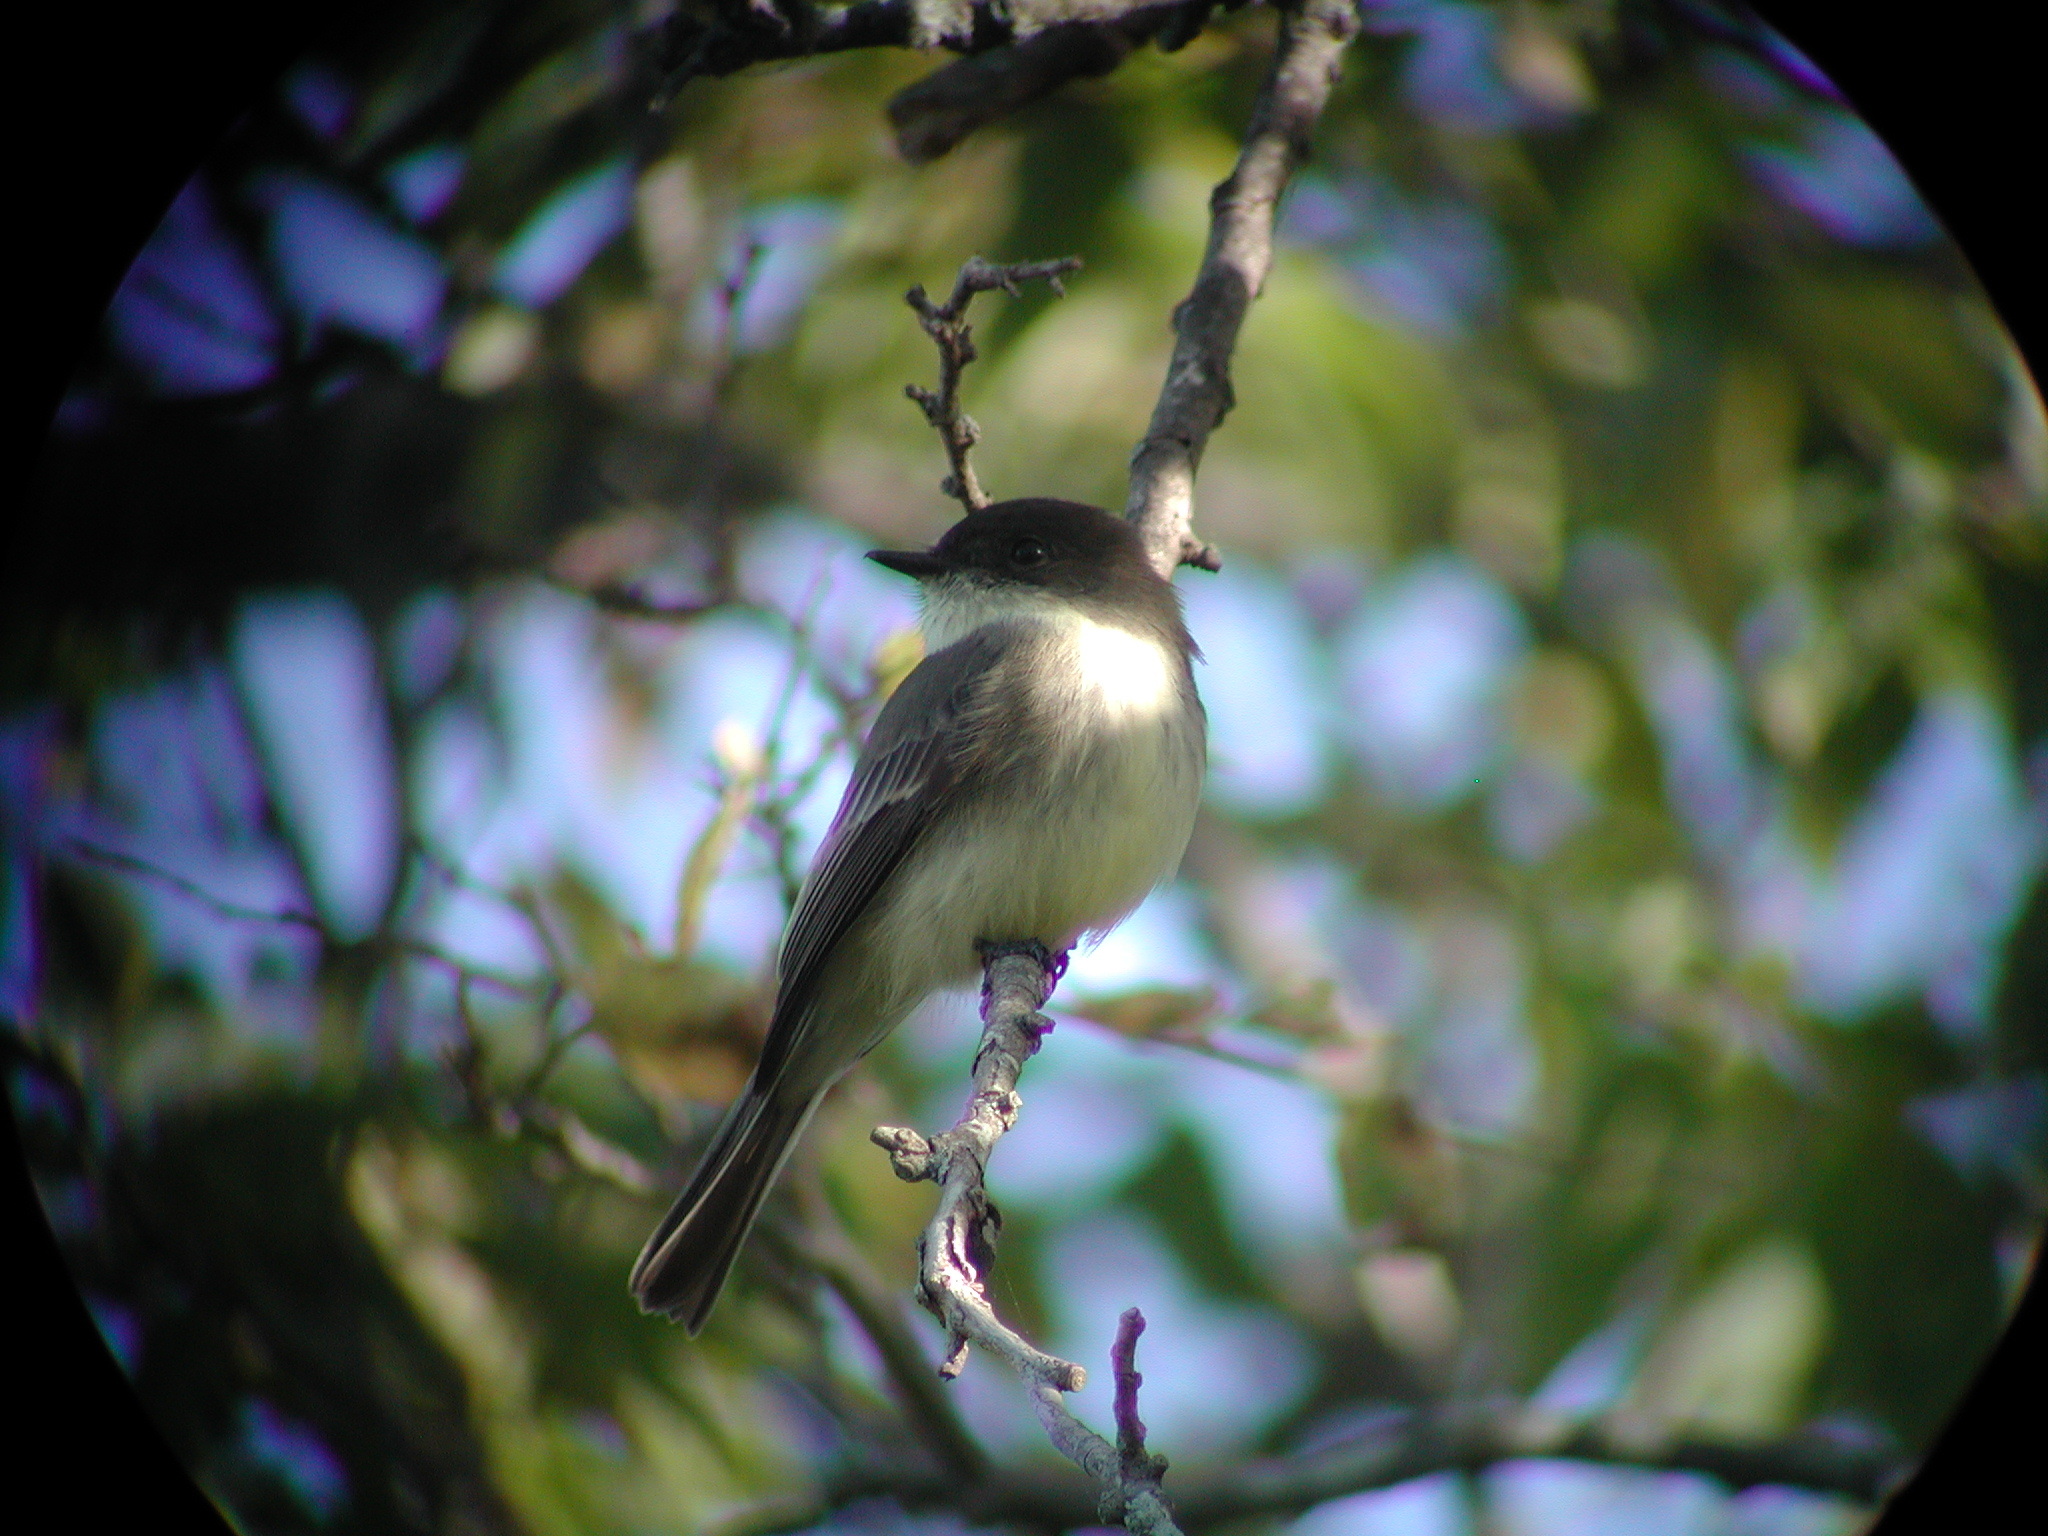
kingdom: Animalia
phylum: Chordata
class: Aves
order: Passeriformes
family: Tyrannidae
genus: Sayornis
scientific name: Sayornis phoebe
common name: Eastern phoebe
